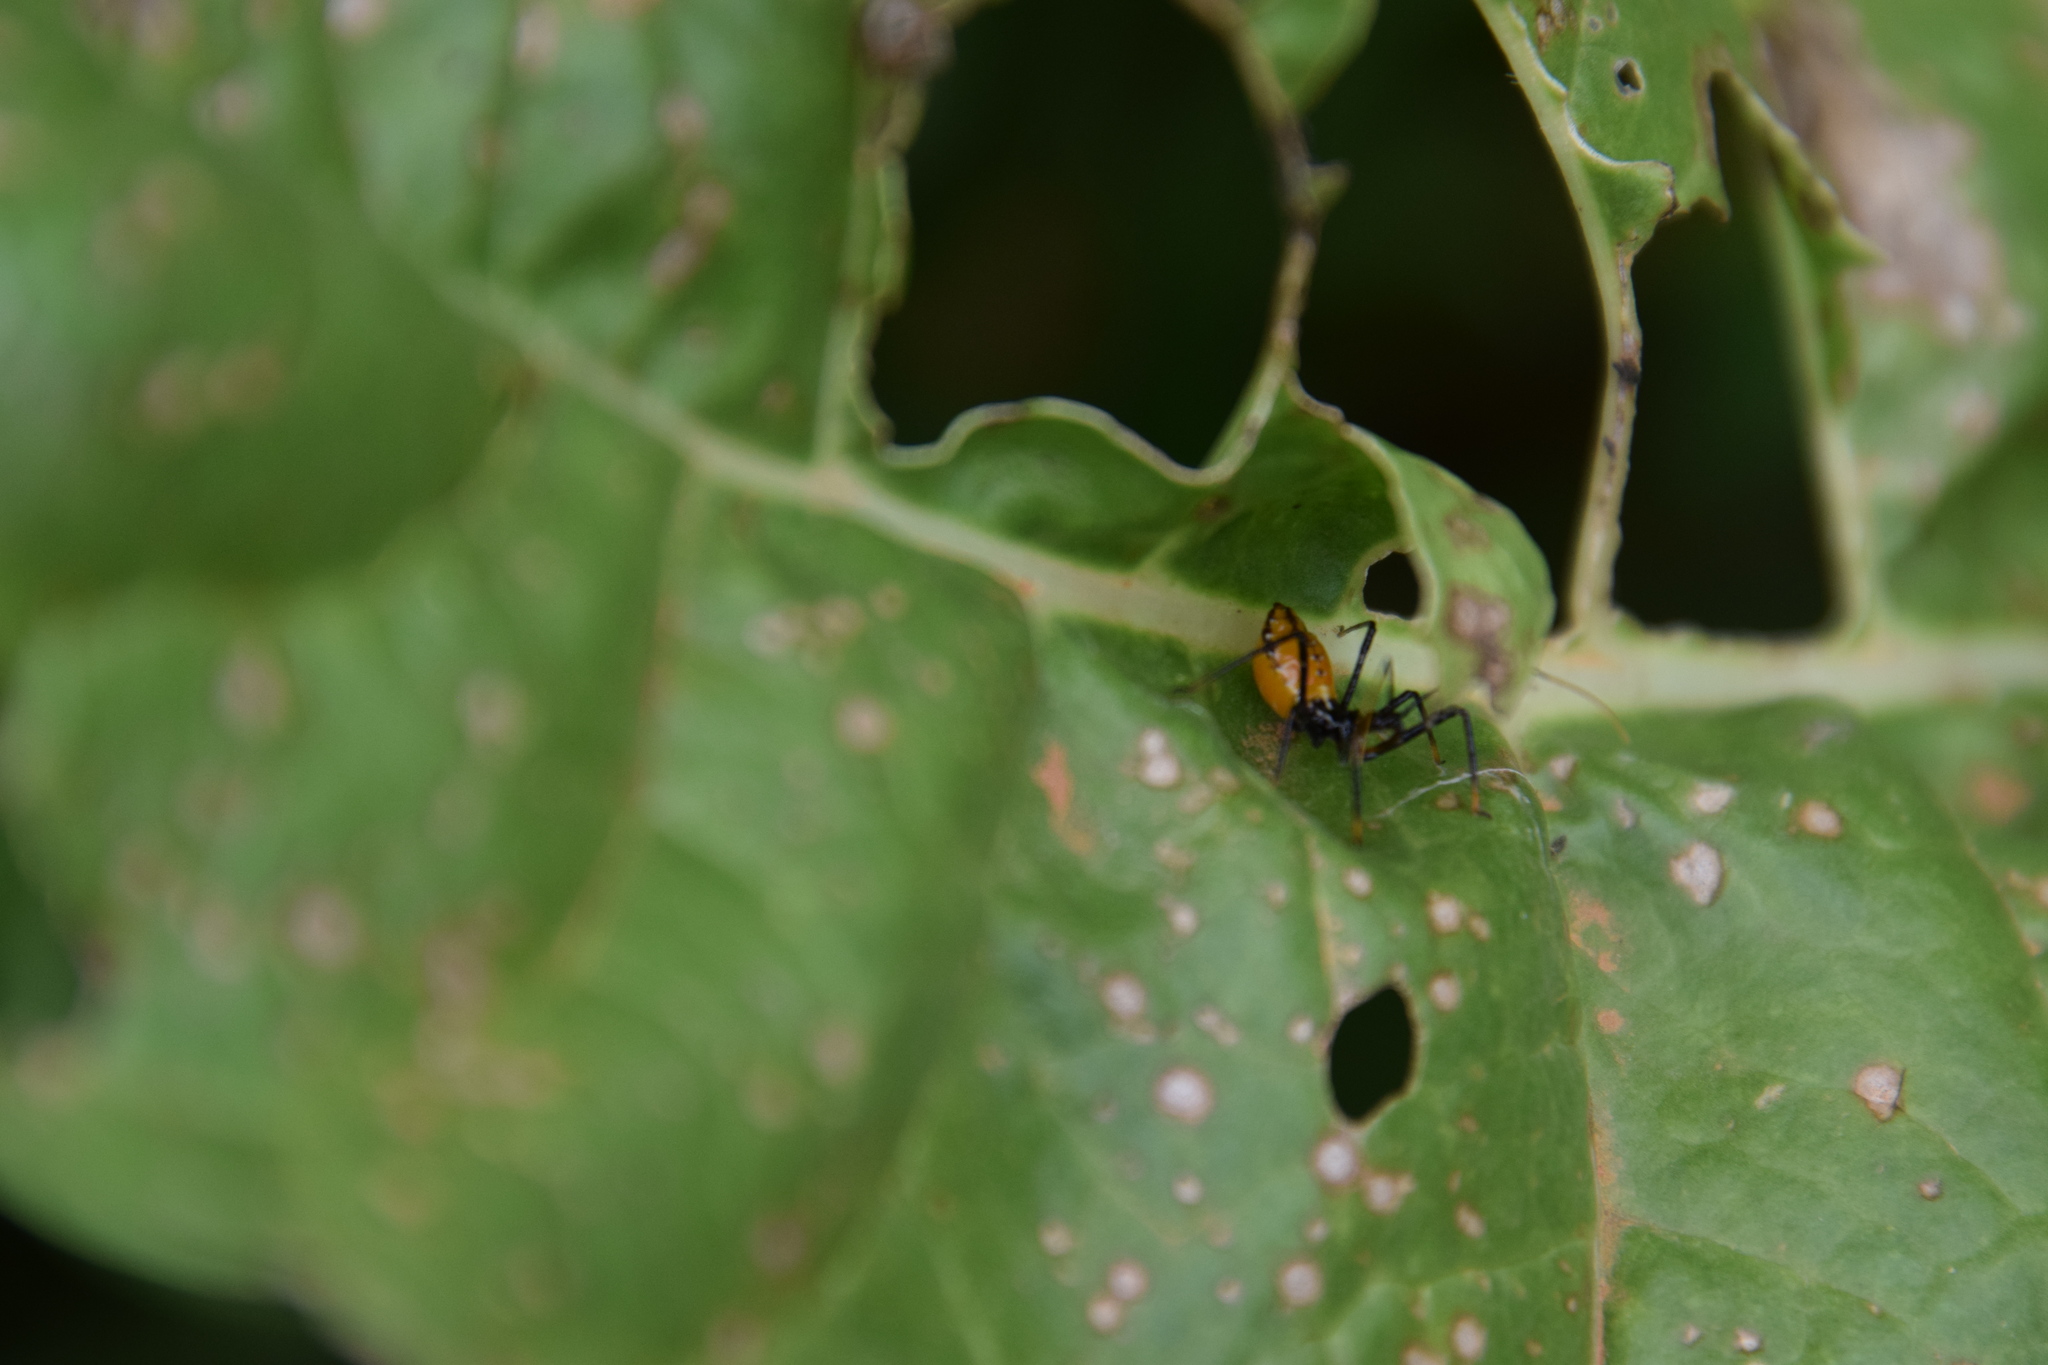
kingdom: Animalia
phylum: Arthropoda
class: Insecta
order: Hemiptera
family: Reduviidae
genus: Pristhesancus
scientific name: Pristhesancus plagipennis
